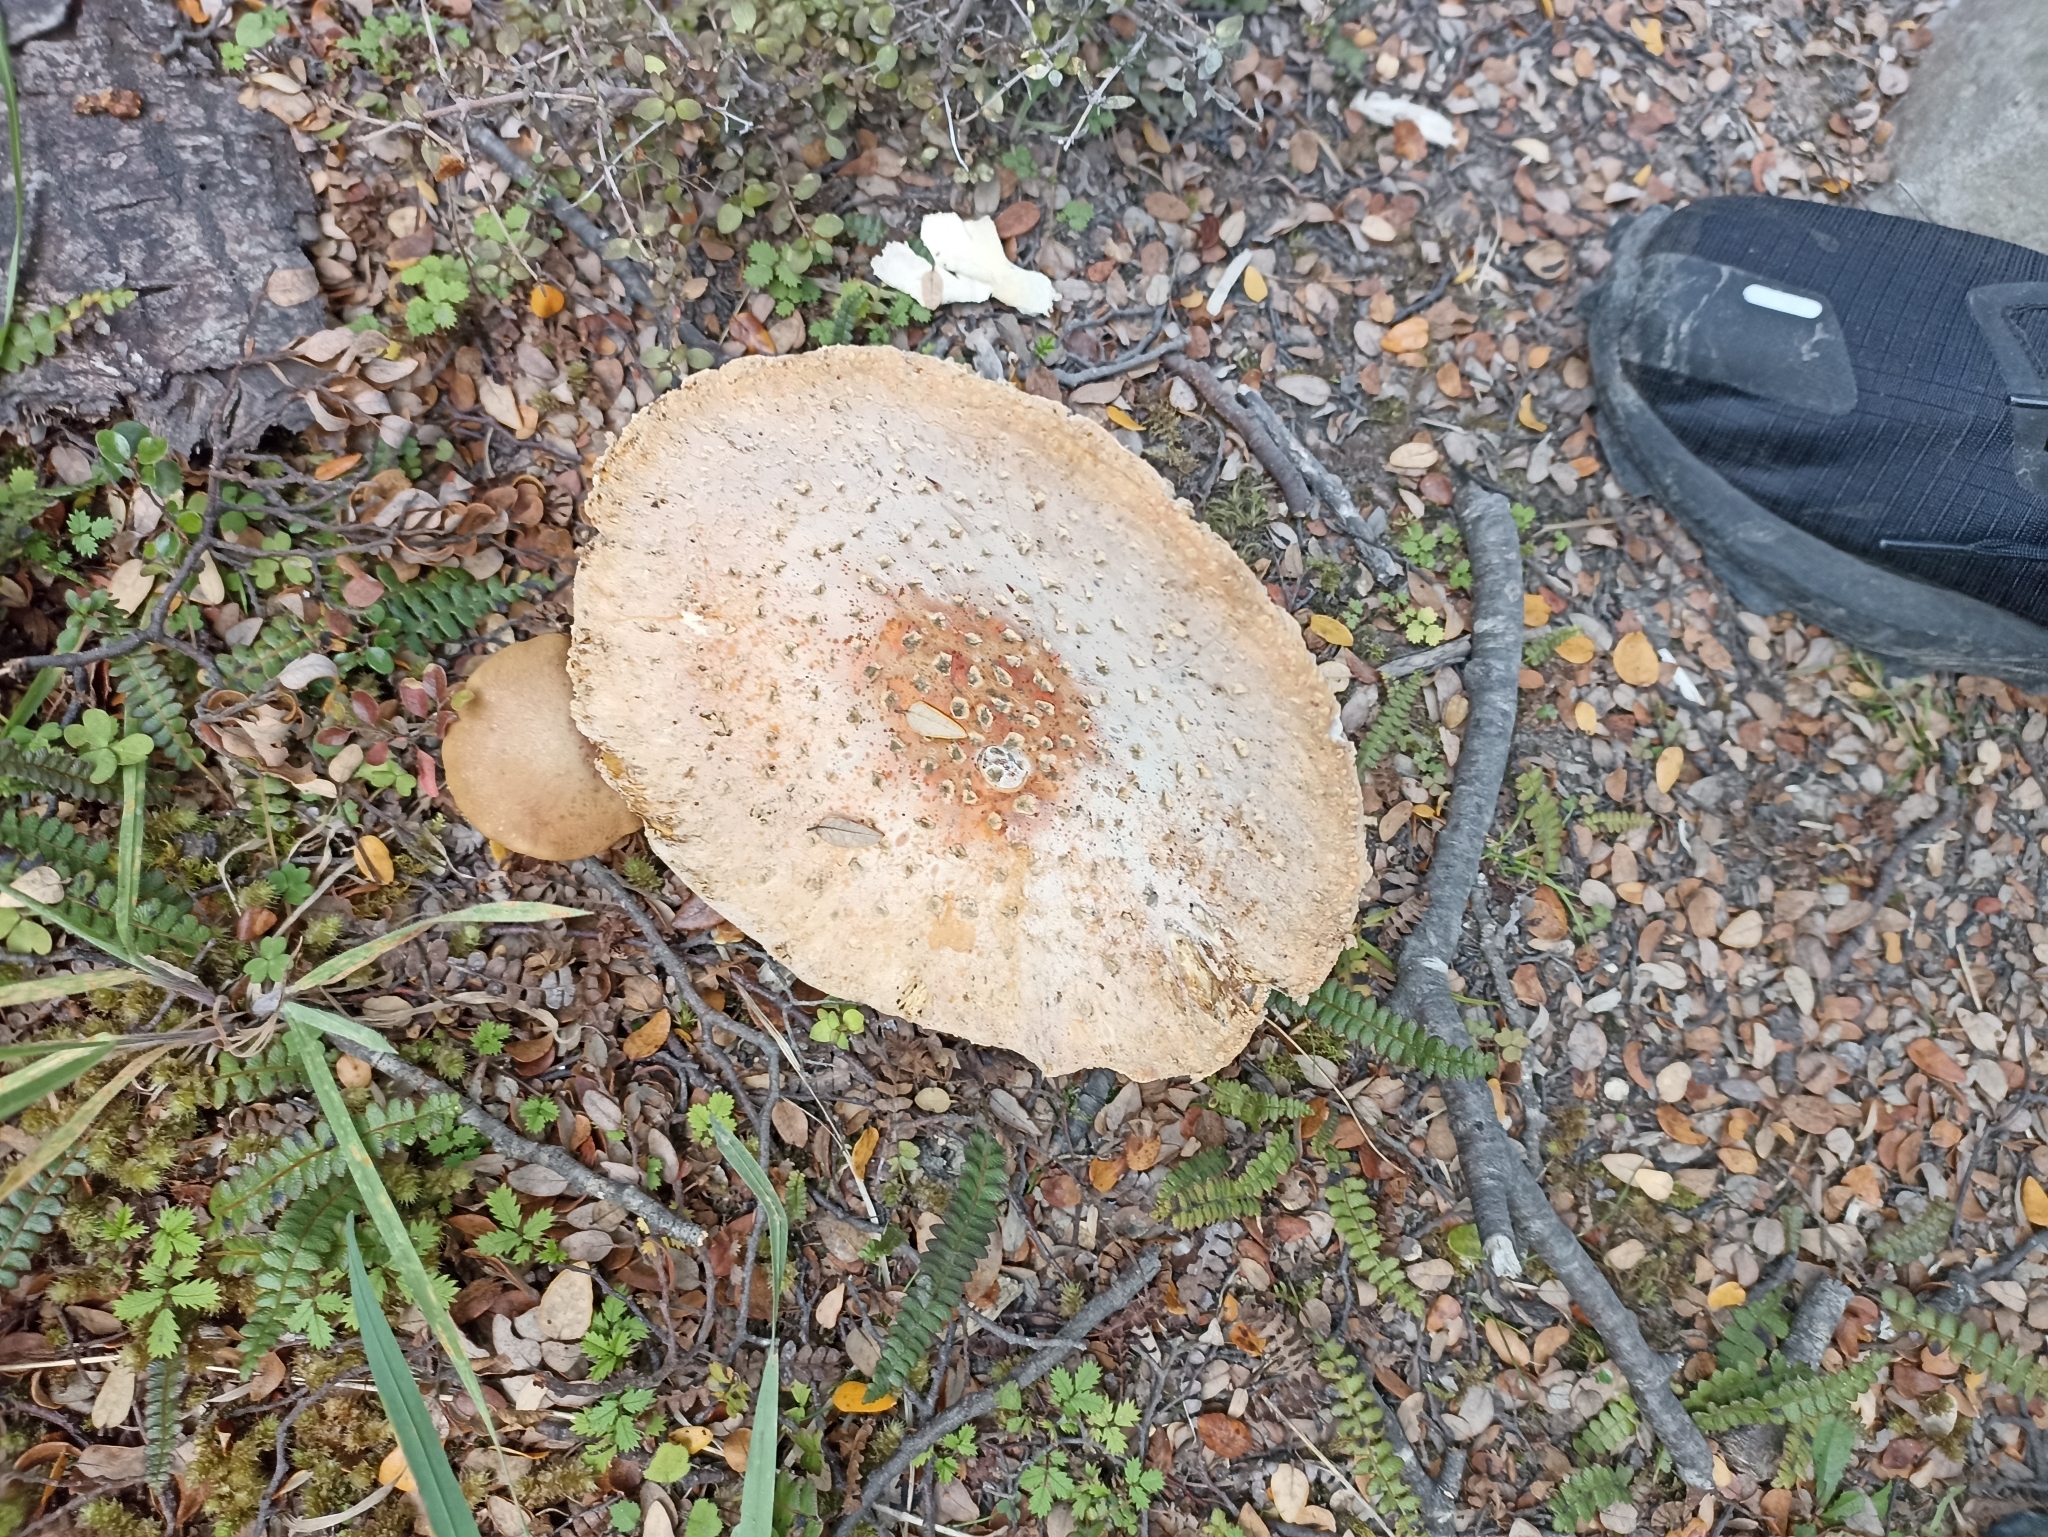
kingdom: Fungi
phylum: Basidiomycota
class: Agaricomycetes
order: Agaricales
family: Amanitaceae
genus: Amanita
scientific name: Amanita muscaria
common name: Fly agaric
